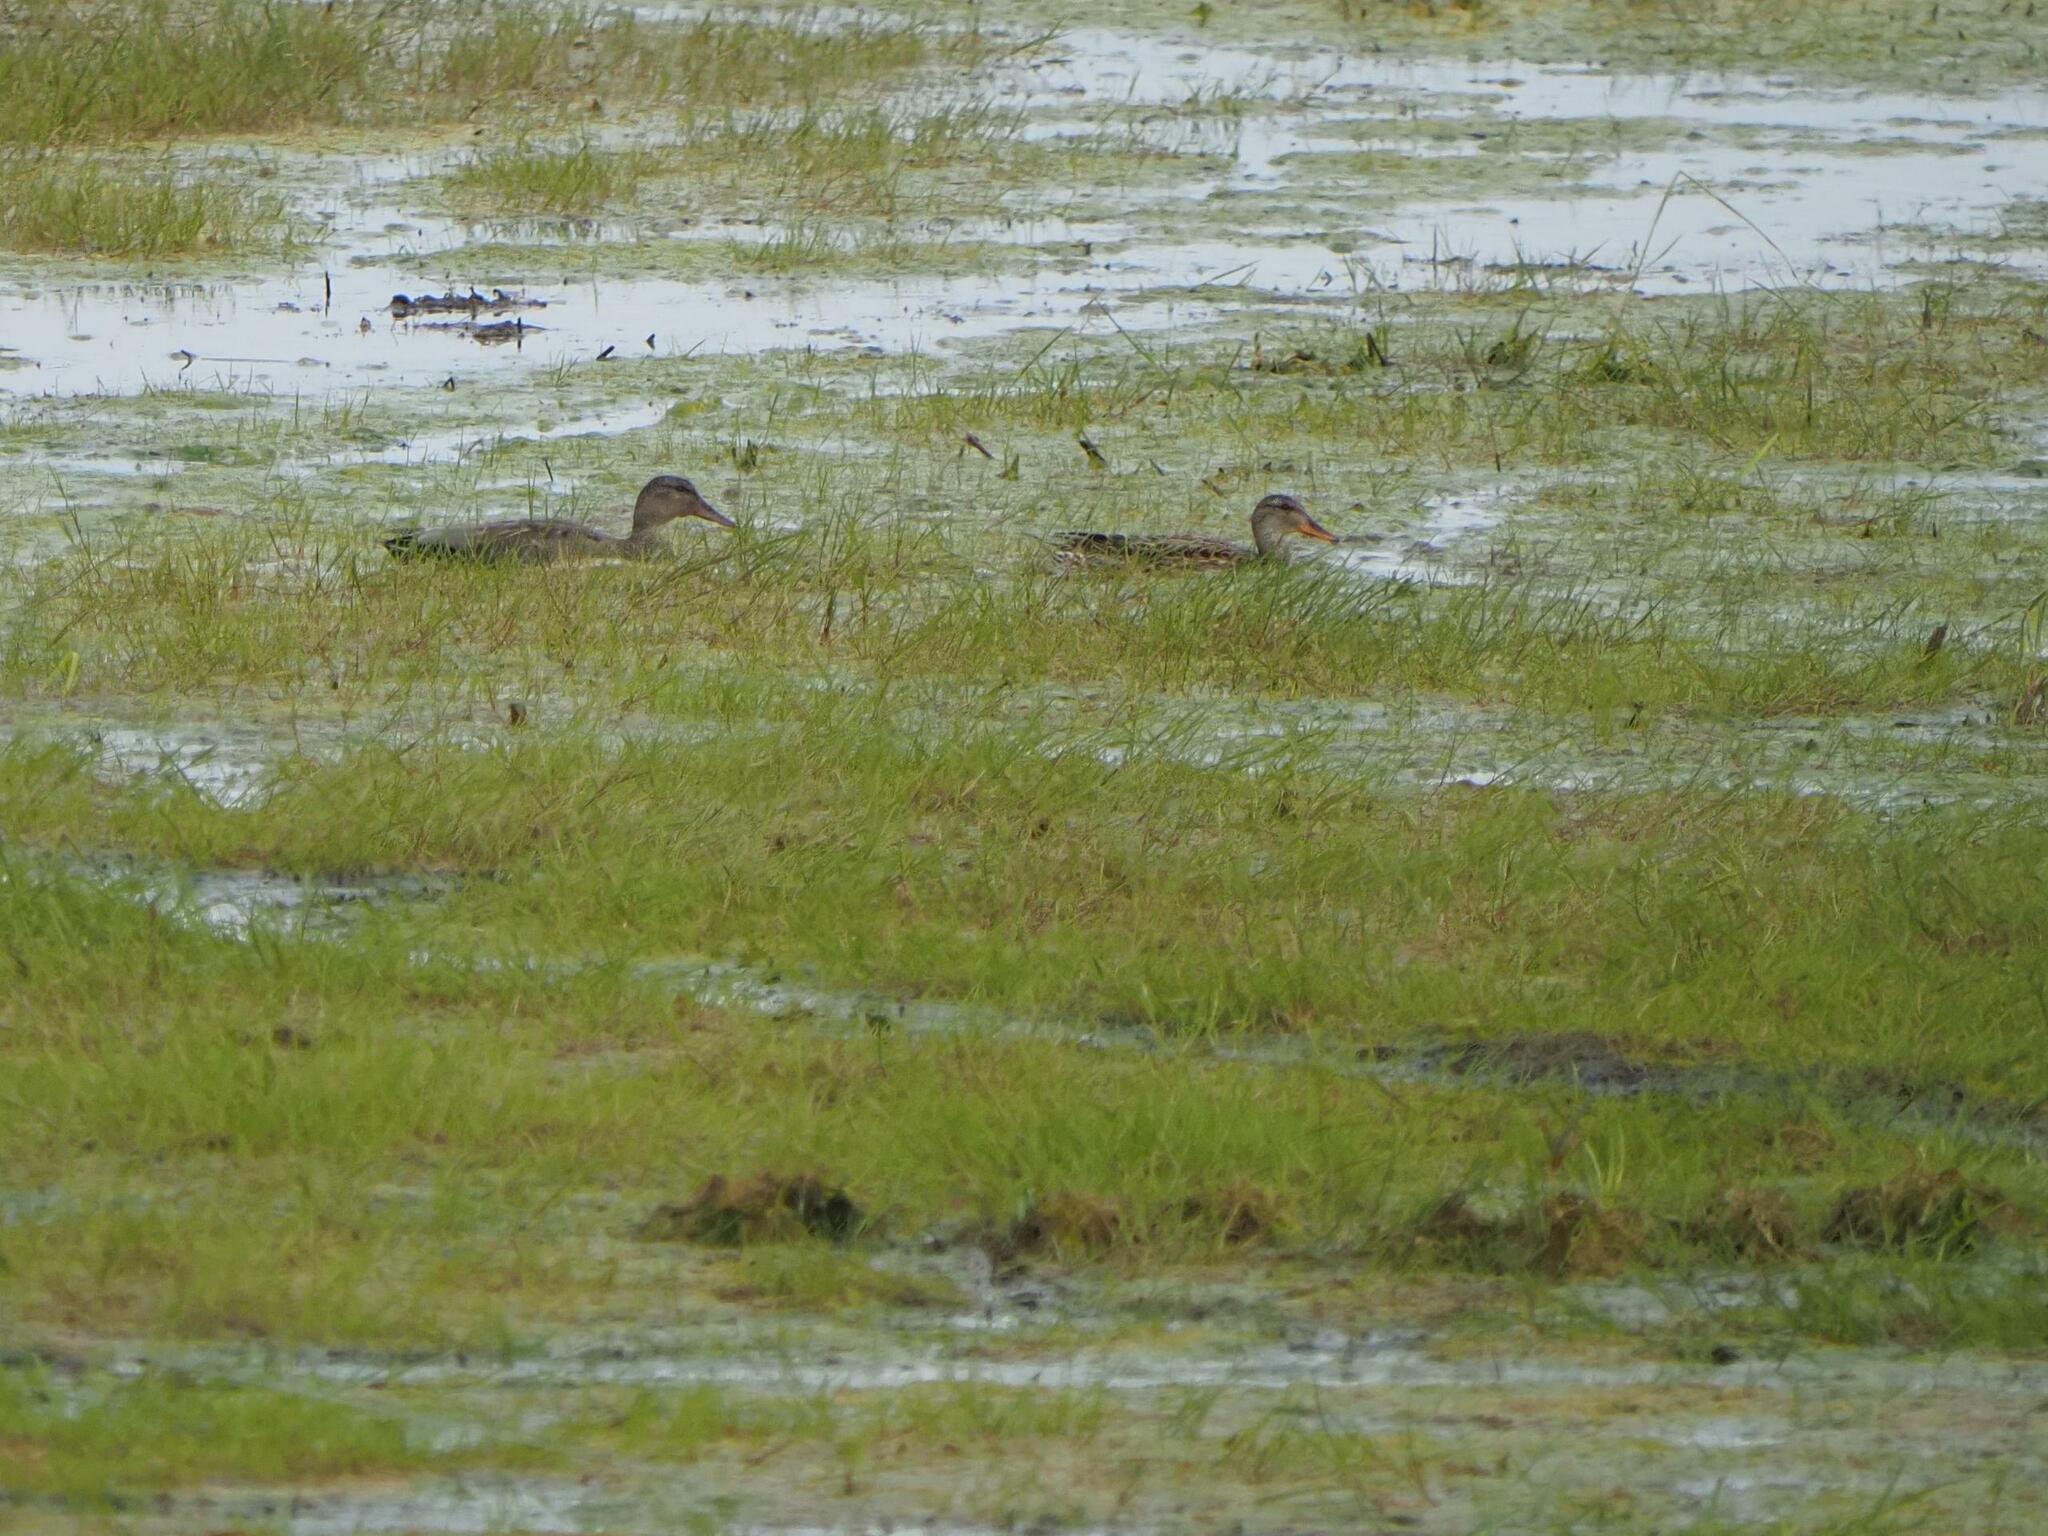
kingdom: Animalia
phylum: Chordata
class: Aves
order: Anseriformes
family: Anatidae
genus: Mareca
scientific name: Mareca strepera
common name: Gadwall
